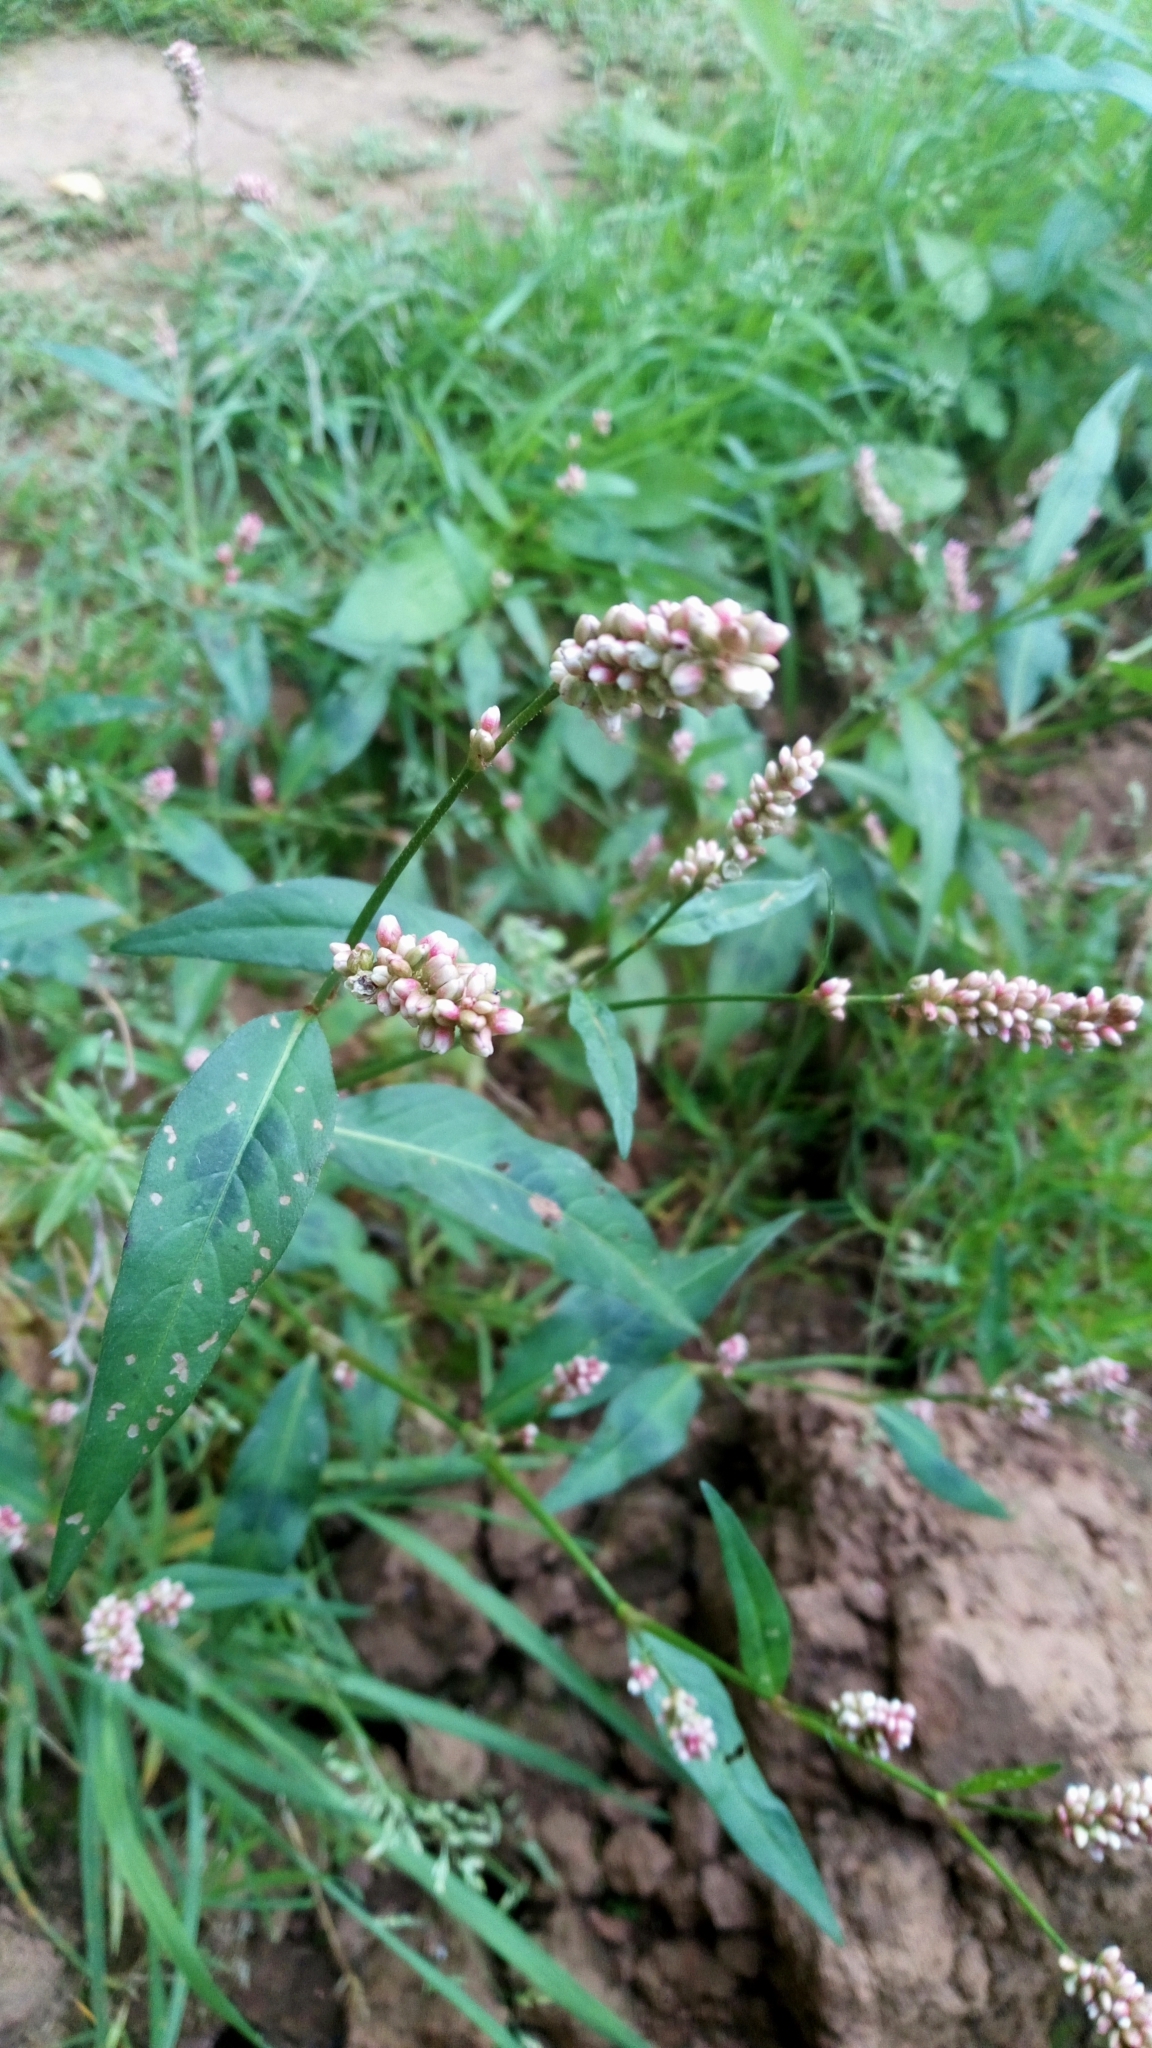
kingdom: Plantae
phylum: Tracheophyta
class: Magnoliopsida
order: Caryophyllales
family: Polygonaceae
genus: Persicaria
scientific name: Persicaria maculosa
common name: Redshank
